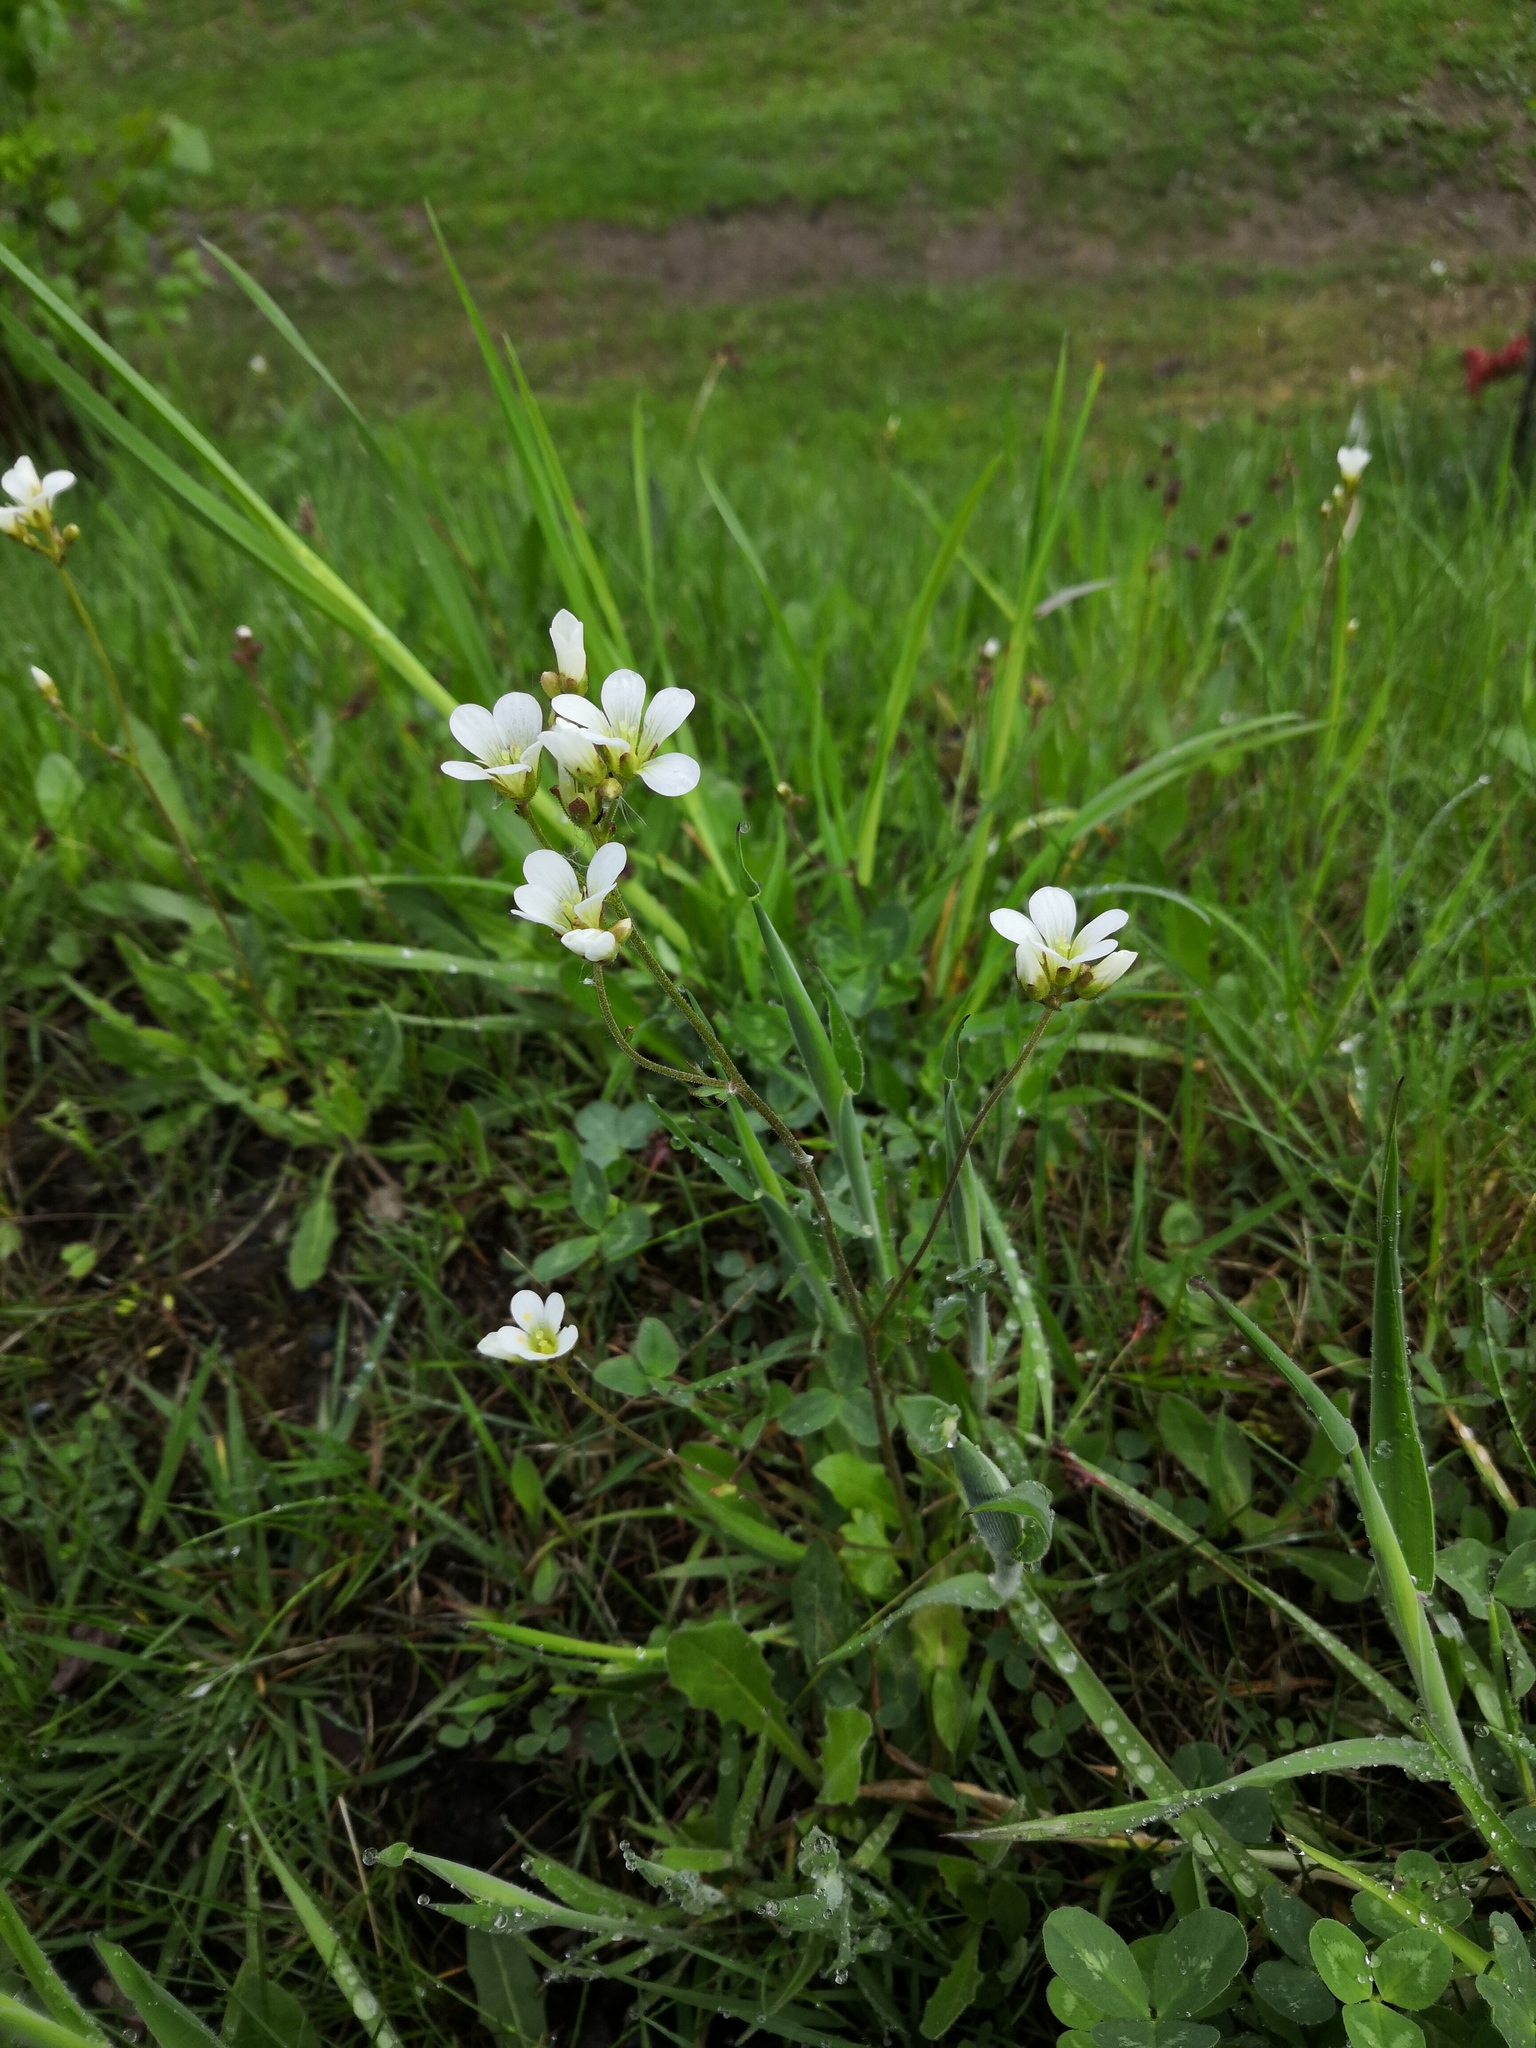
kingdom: Plantae
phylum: Tracheophyta
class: Magnoliopsida
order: Saxifragales
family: Saxifragaceae
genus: Saxifraga
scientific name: Saxifraga granulata
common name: Meadow saxifrage
